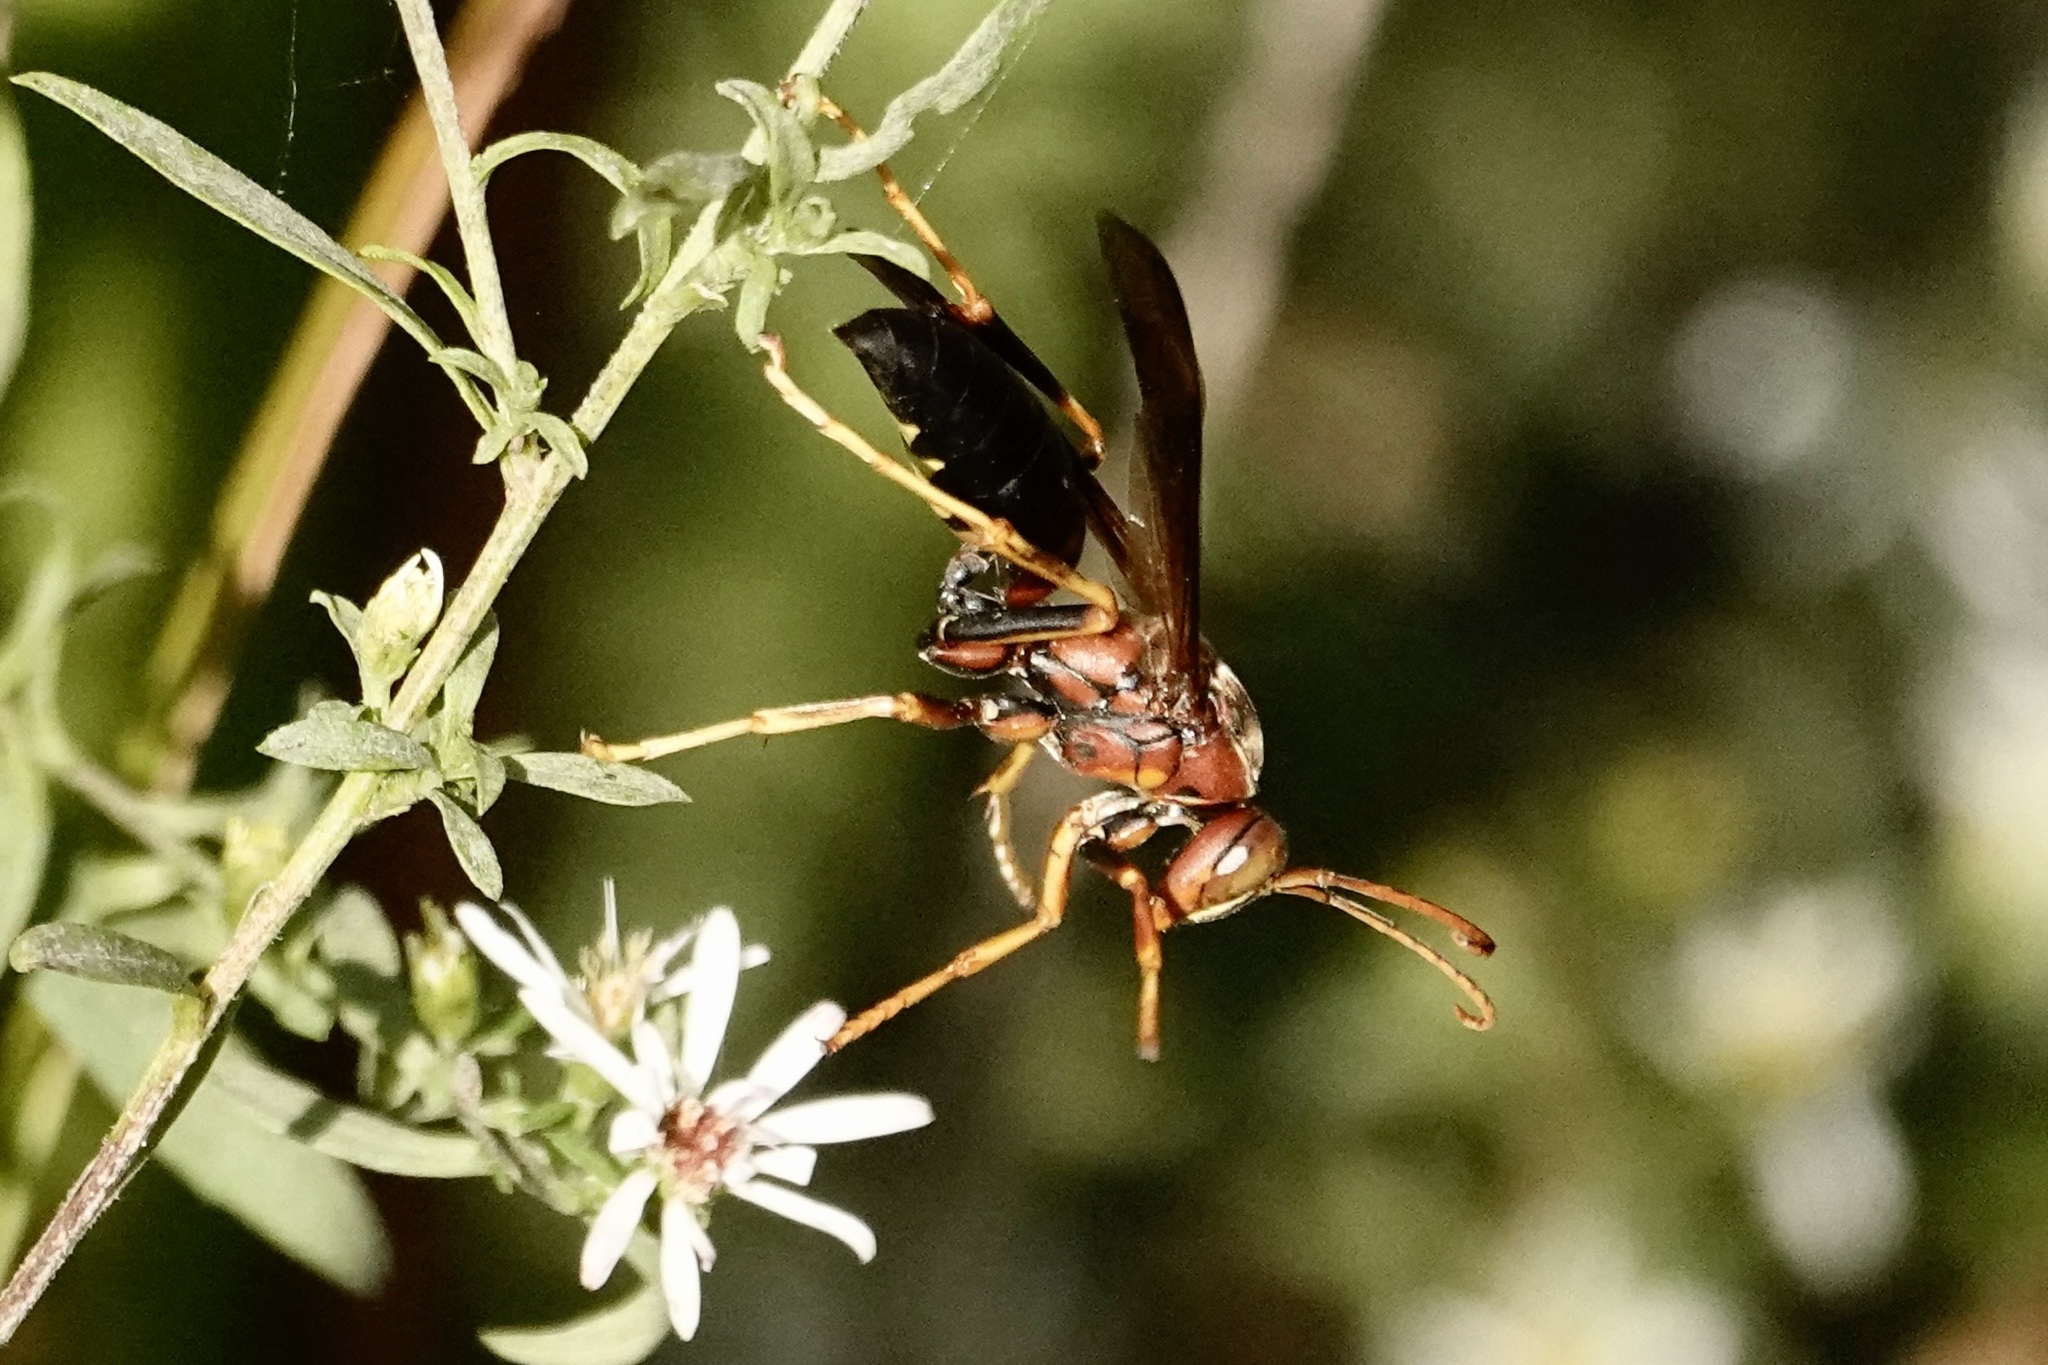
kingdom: Animalia
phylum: Arthropoda
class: Insecta
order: Hymenoptera
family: Eumenidae
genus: Polistes
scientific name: Polistes metricus
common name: Metric paper wasp
